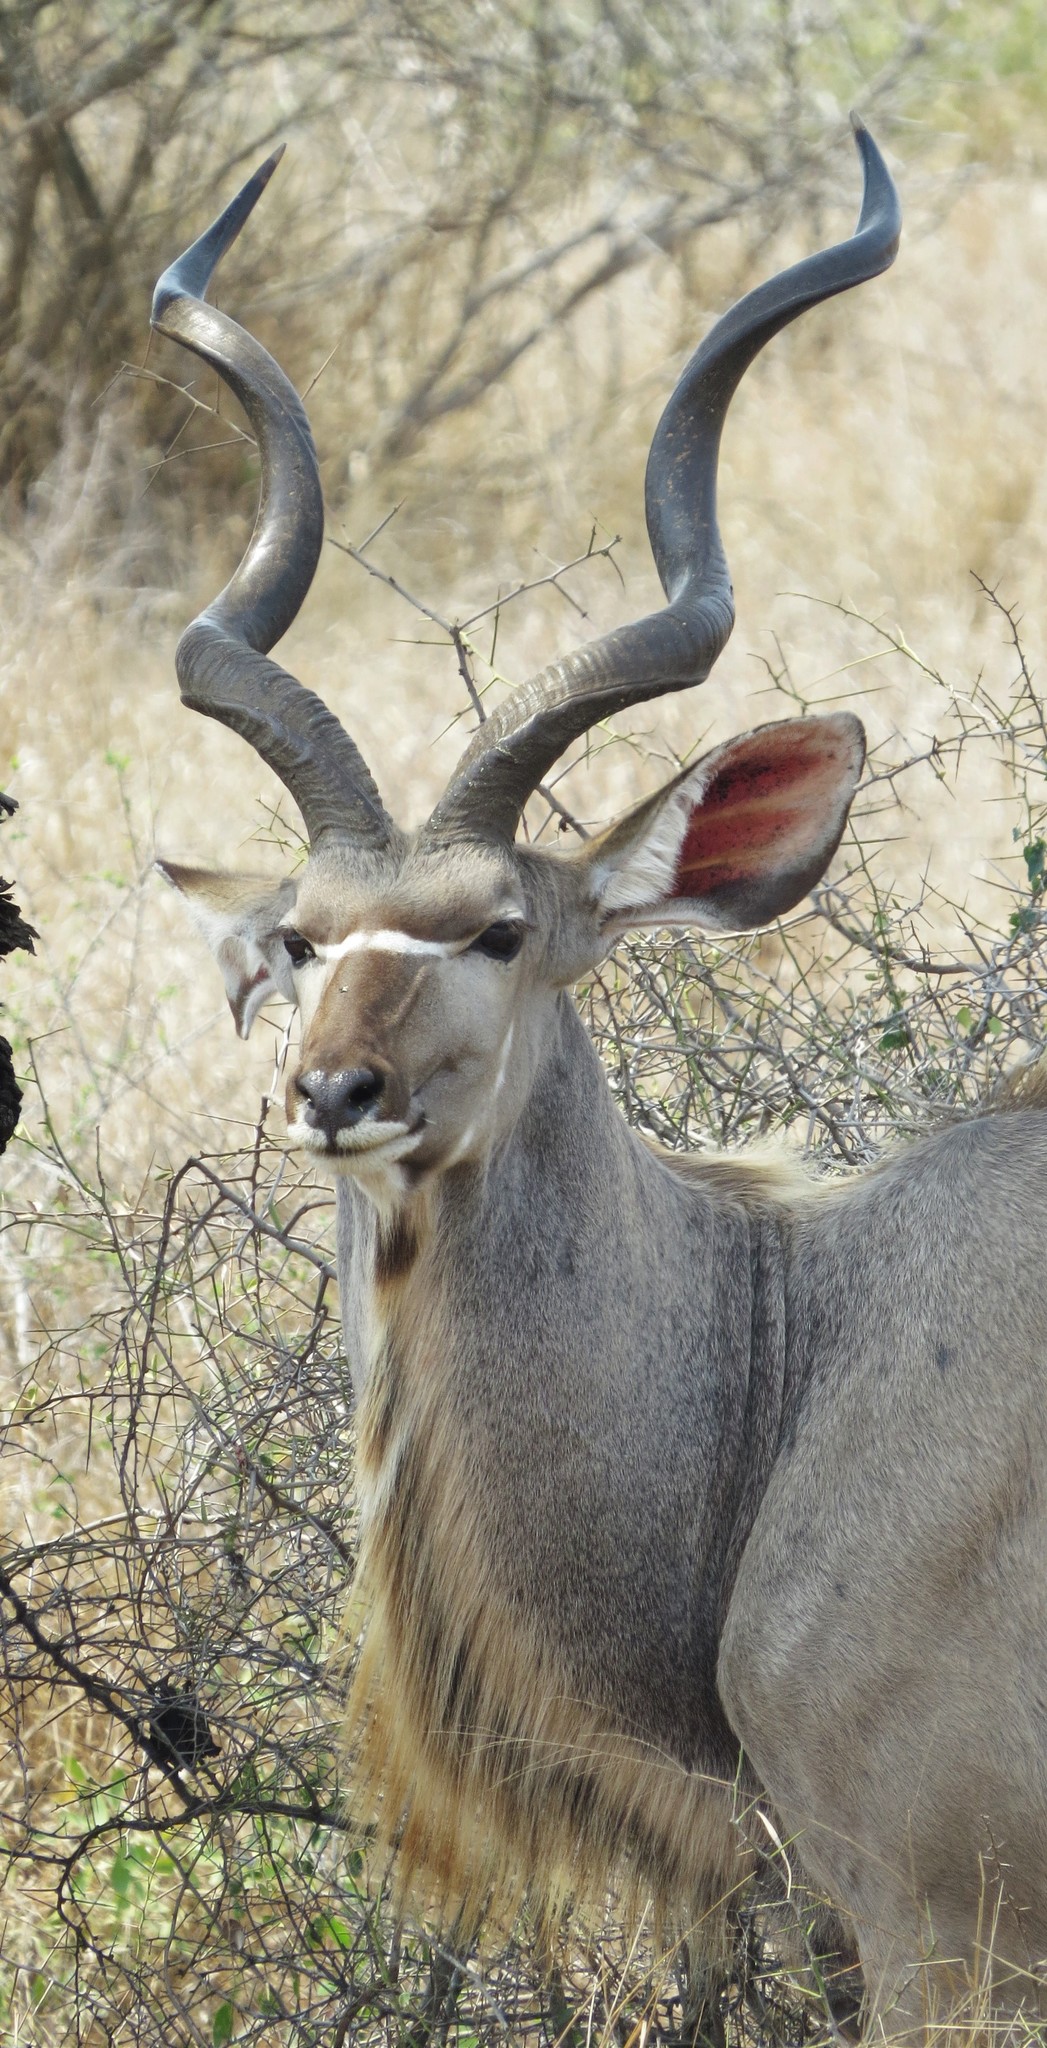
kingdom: Animalia
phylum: Chordata
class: Mammalia
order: Artiodactyla
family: Bovidae
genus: Tragelaphus
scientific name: Tragelaphus strepsiceros
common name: Greater kudu
